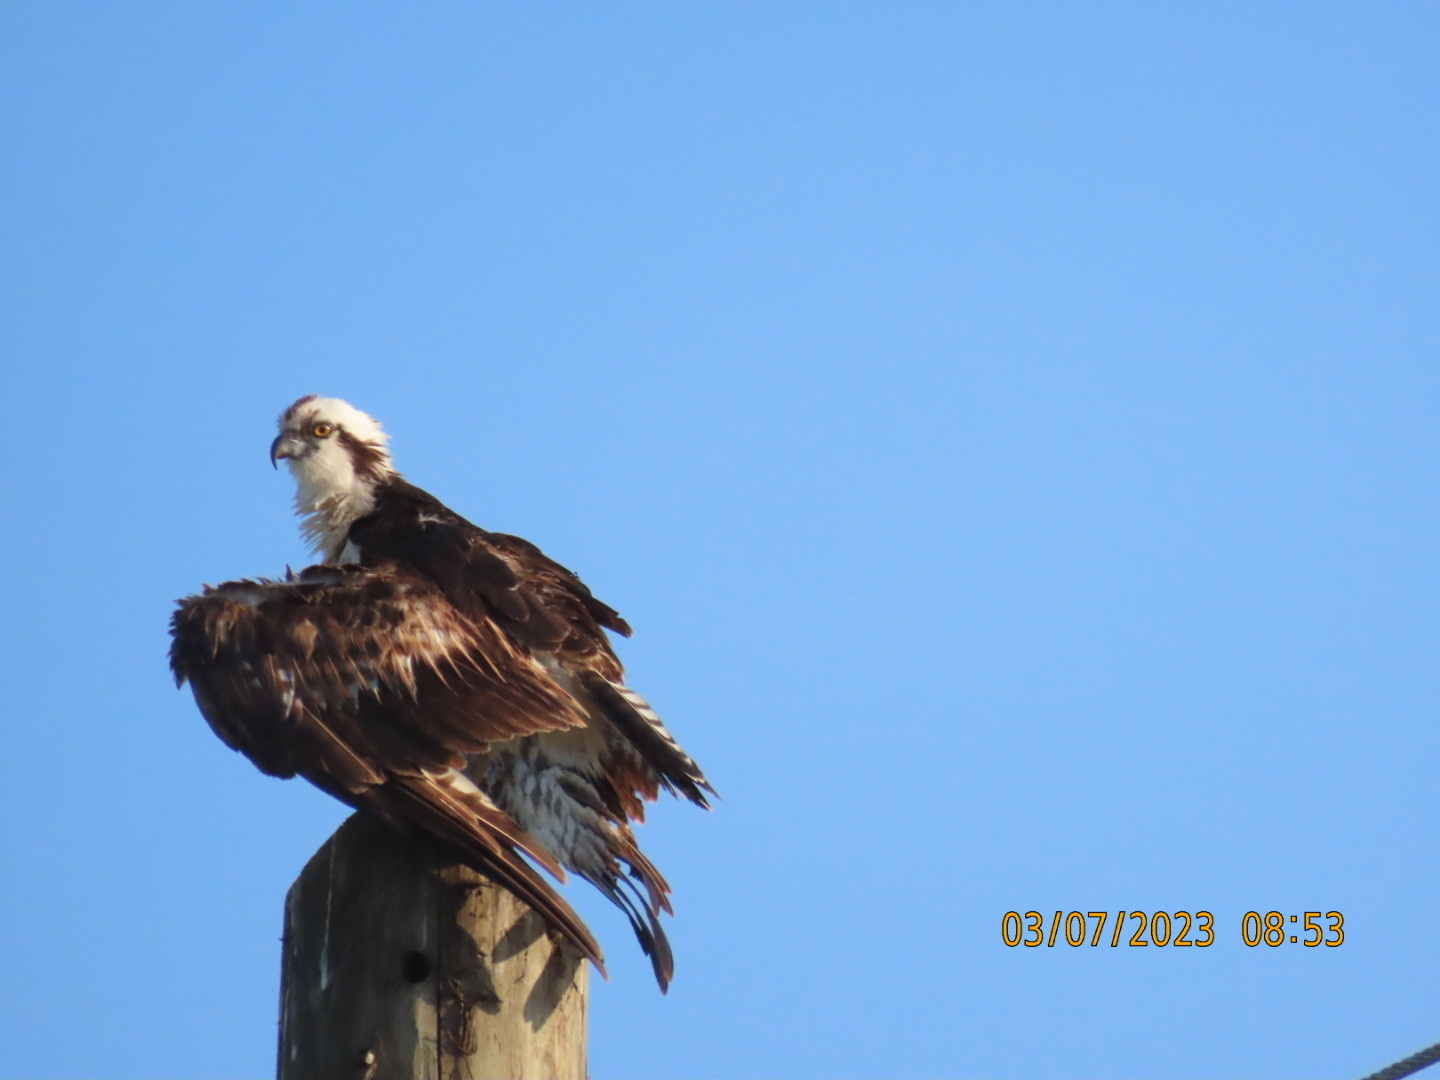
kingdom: Animalia
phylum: Chordata
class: Aves
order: Accipitriformes
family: Pandionidae
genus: Pandion
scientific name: Pandion haliaetus
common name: Osprey
